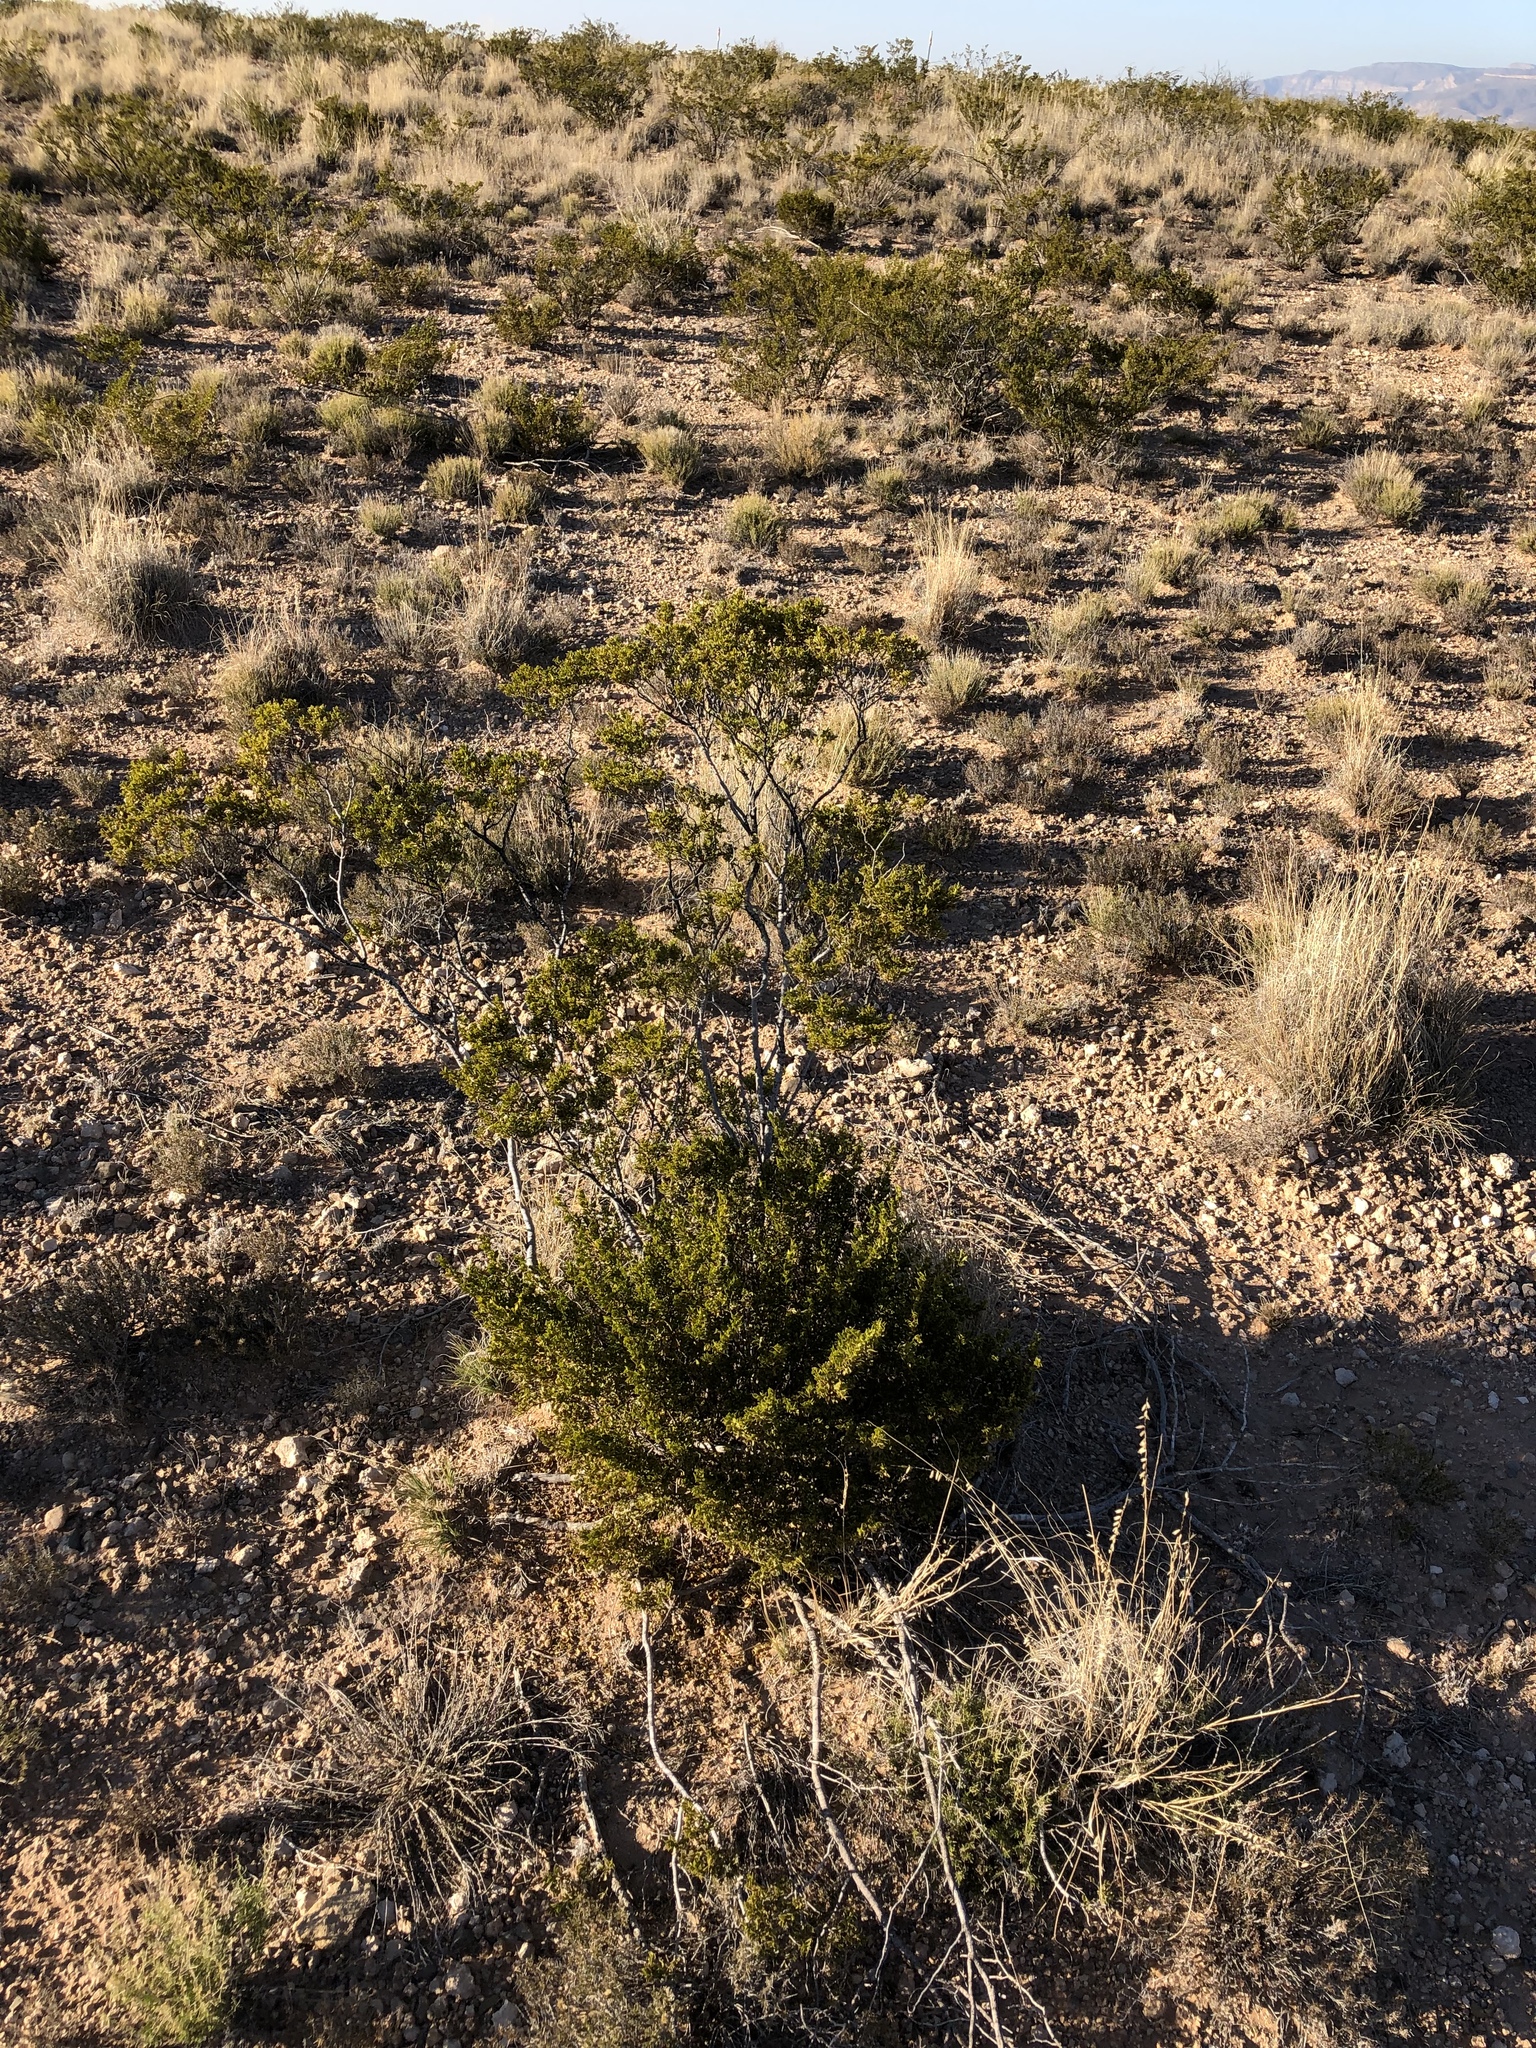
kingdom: Plantae
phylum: Tracheophyta
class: Magnoliopsida
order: Zygophyllales
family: Zygophyllaceae
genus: Larrea
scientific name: Larrea tridentata
